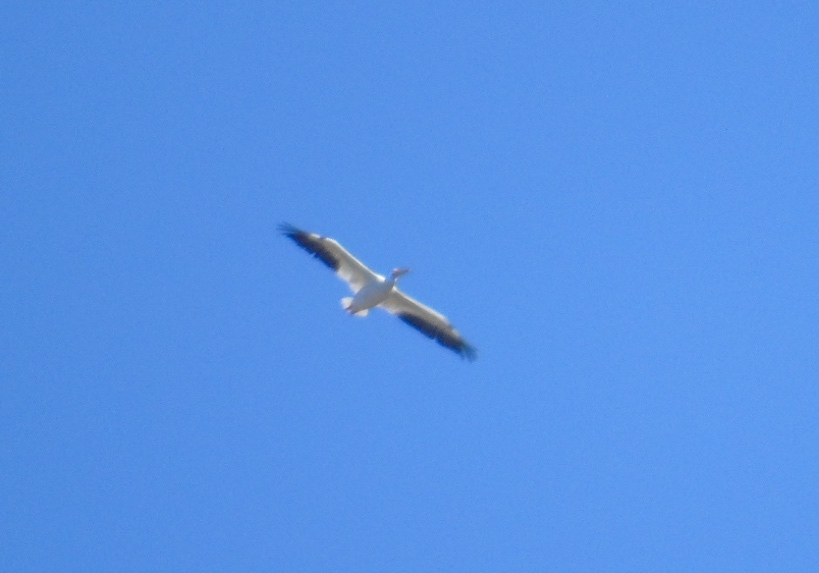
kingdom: Animalia
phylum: Chordata
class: Aves
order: Pelecaniformes
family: Pelecanidae
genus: Pelecanus
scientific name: Pelecanus erythrorhynchos
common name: American white pelican
